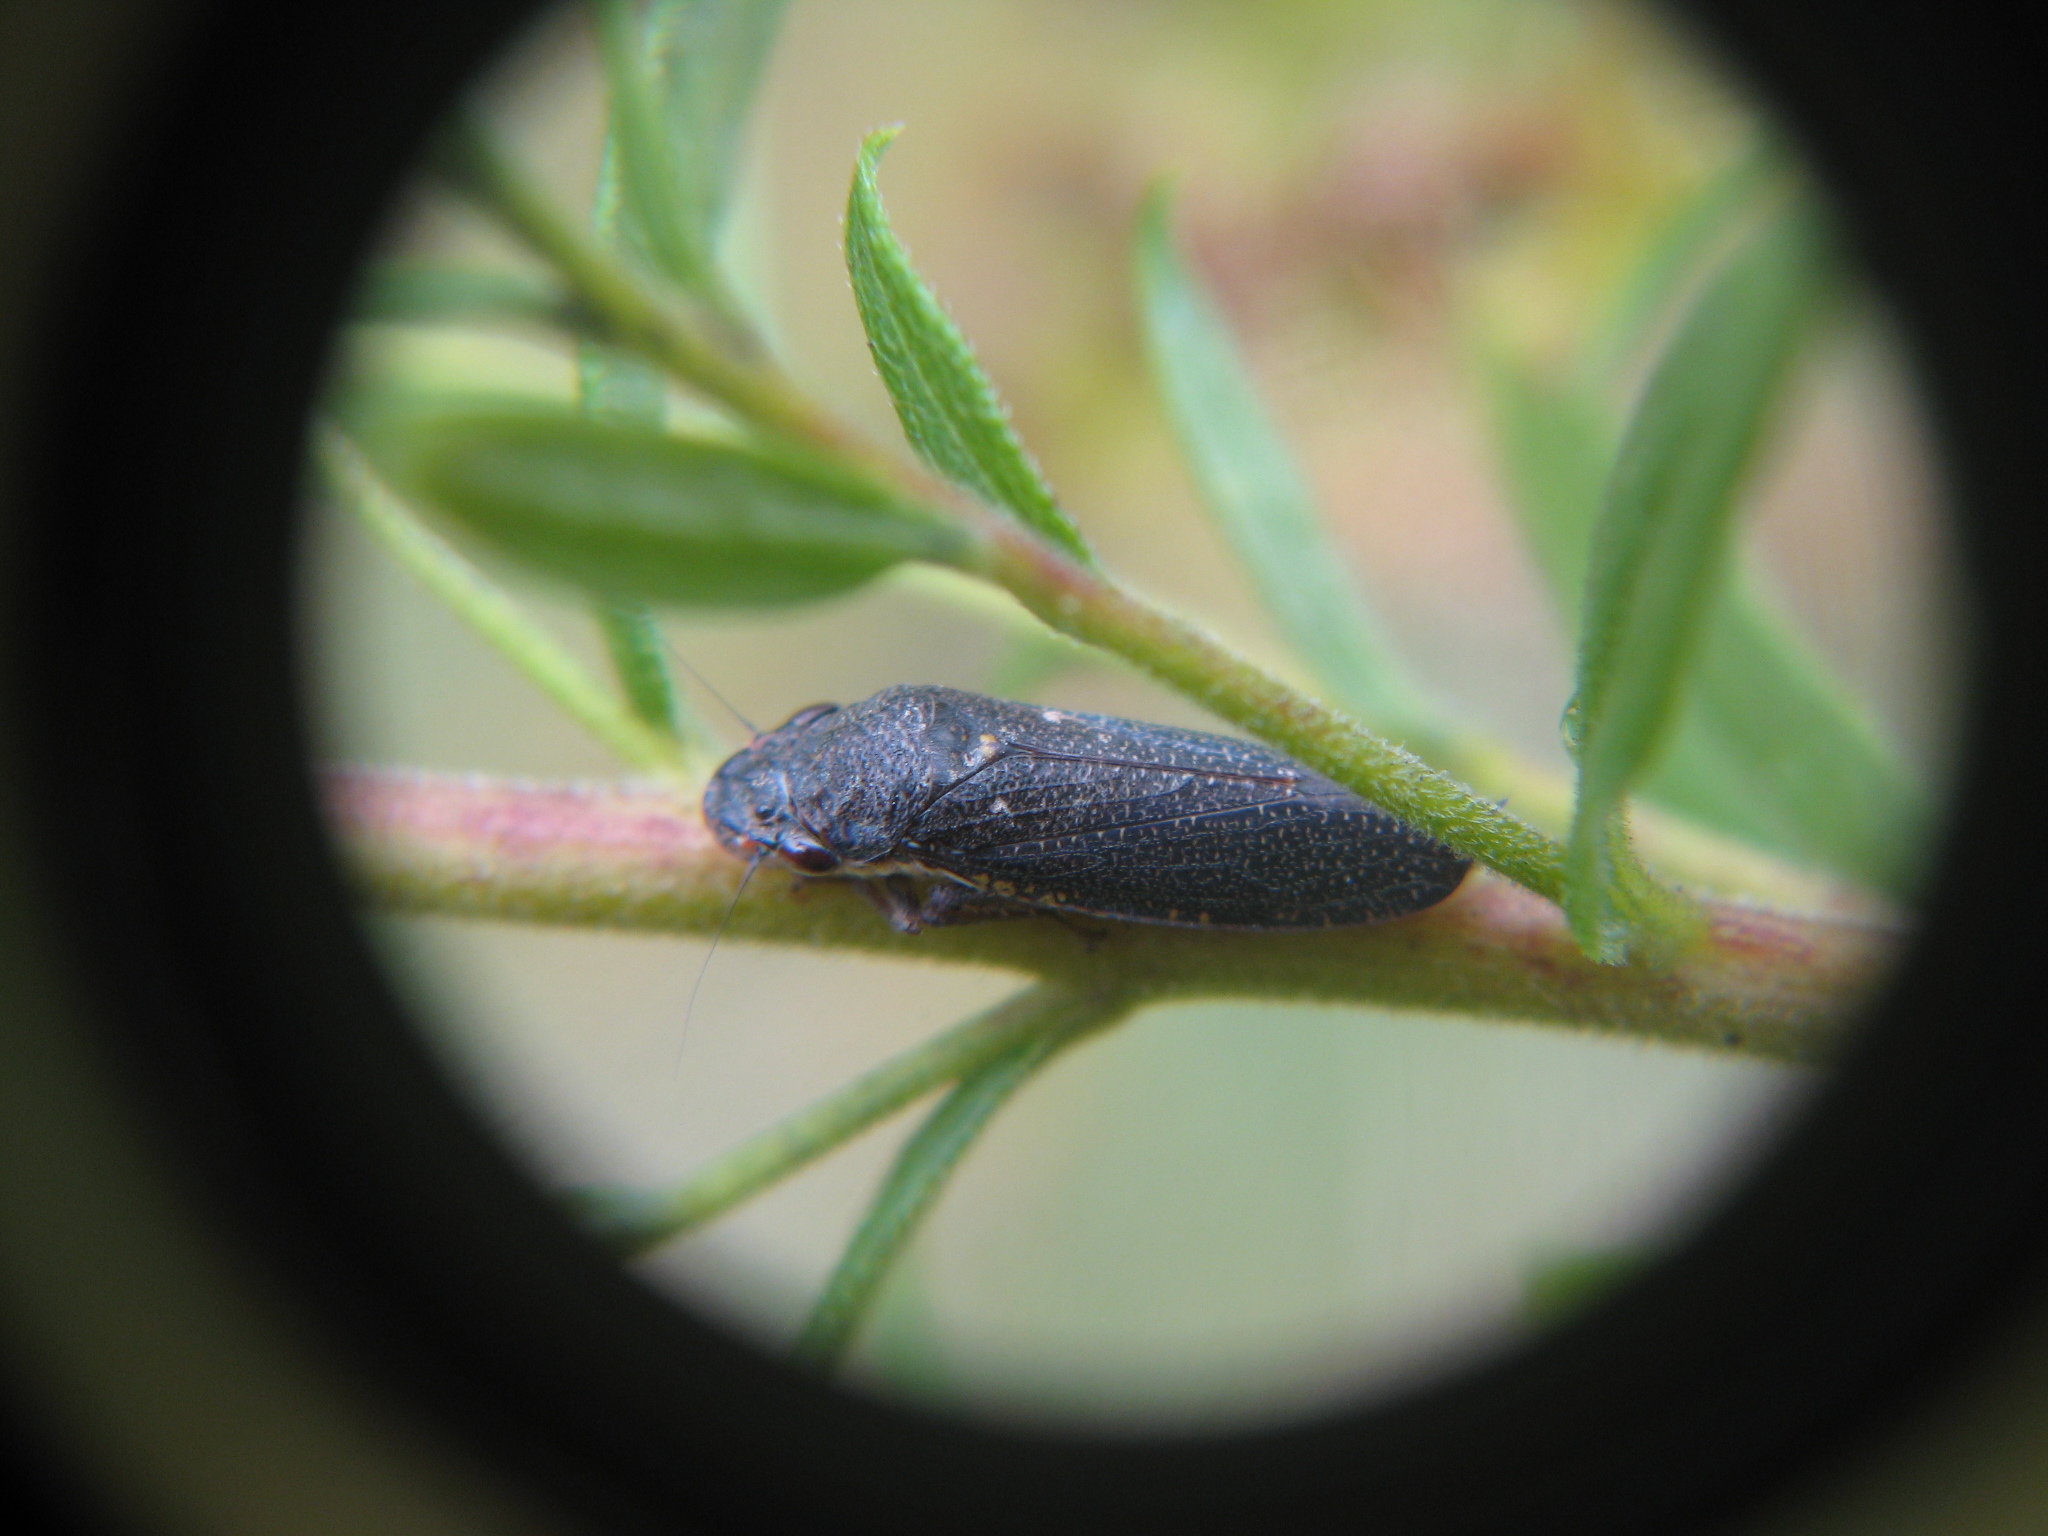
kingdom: Animalia
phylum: Arthropoda
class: Insecta
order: Hemiptera
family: Cicadellidae
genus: Paraulacizes
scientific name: Paraulacizes irrorata
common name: Speckled sharpshooter
